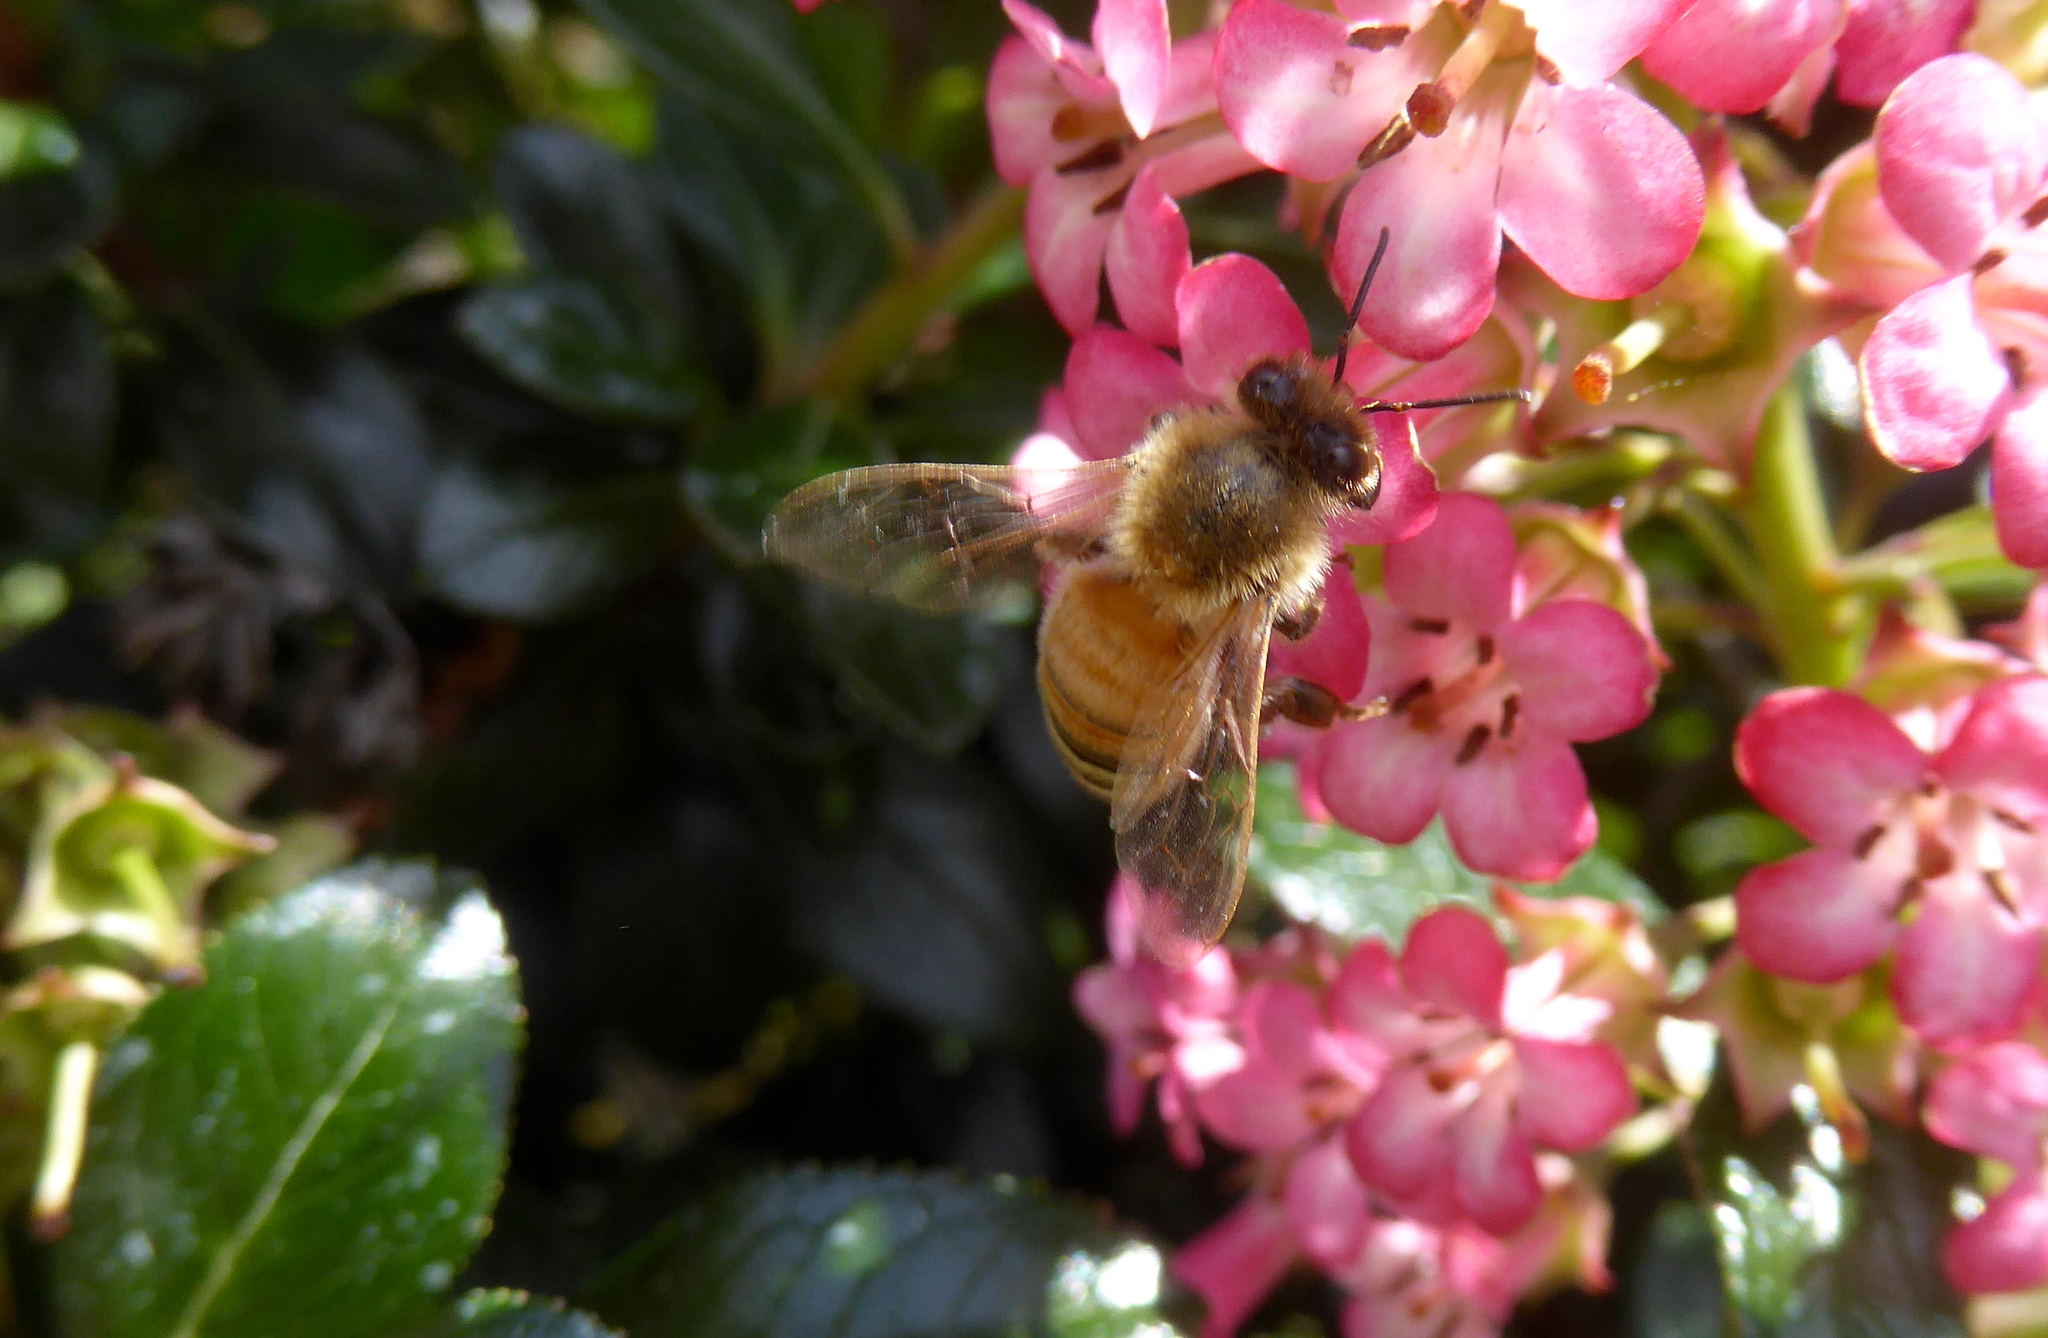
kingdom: Animalia
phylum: Arthropoda
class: Insecta
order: Hymenoptera
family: Apidae
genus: Apis
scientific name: Apis mellifera
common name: Honey bee
